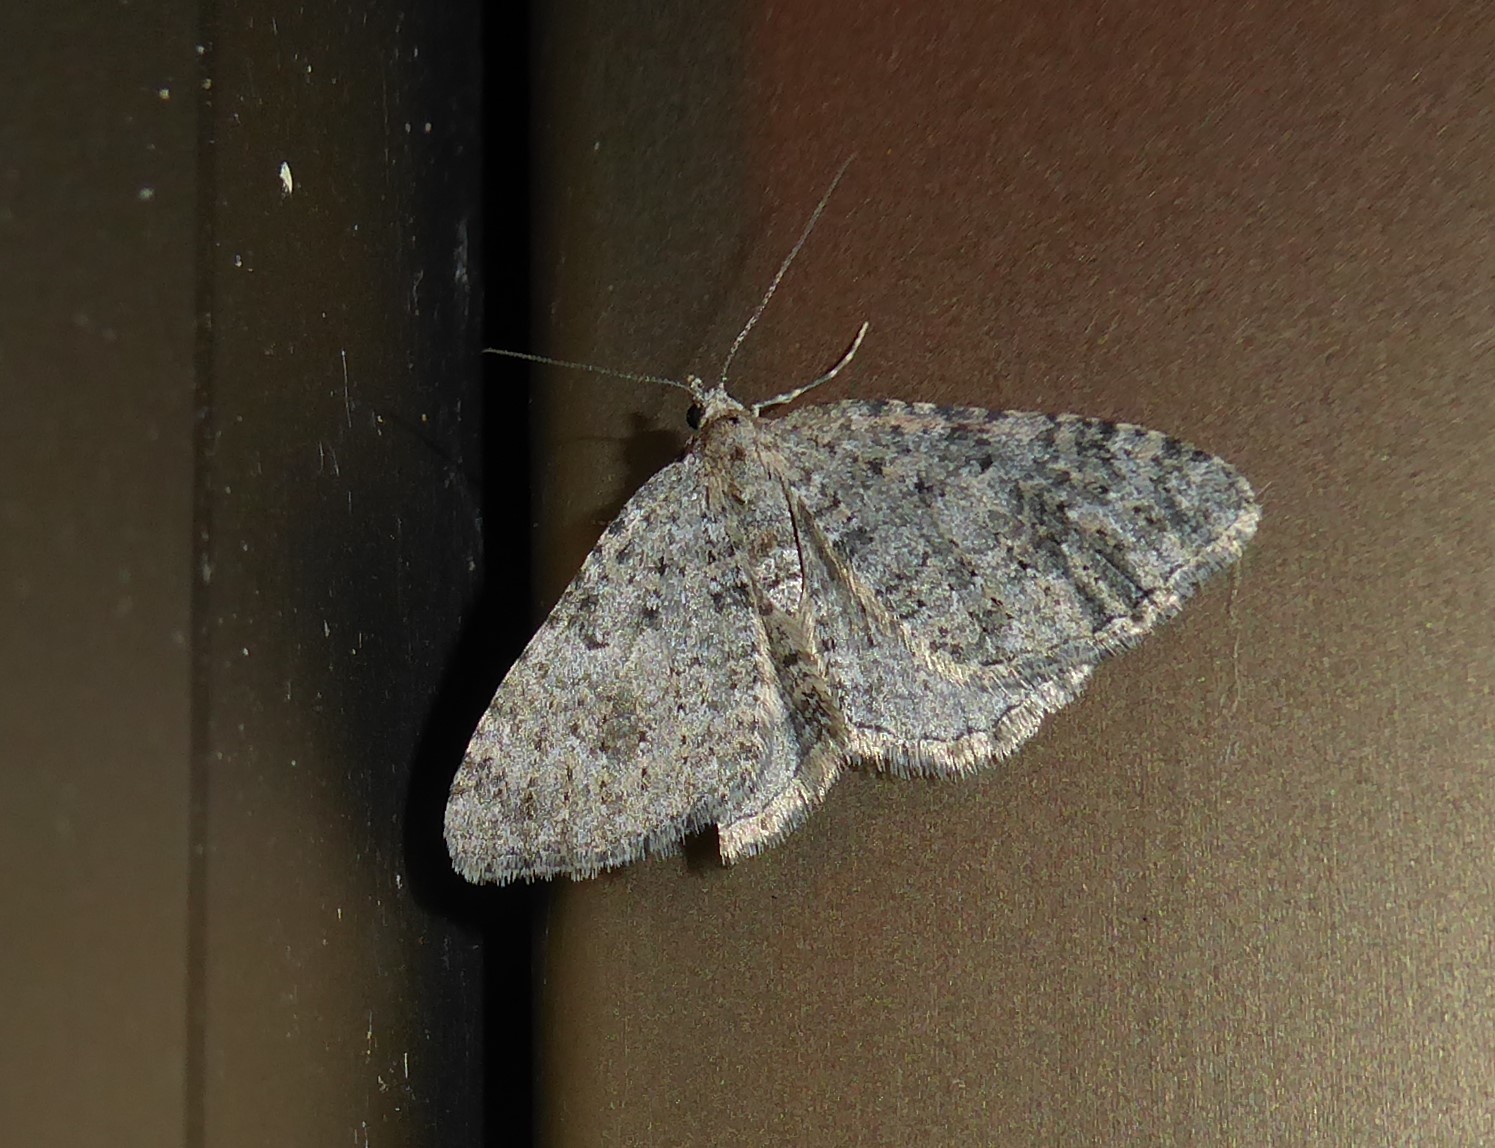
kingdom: Animalia
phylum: Arthropoda
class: Insecta
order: Lepidoptera
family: Geometridae
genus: Helastia
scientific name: Helastia corcularia
